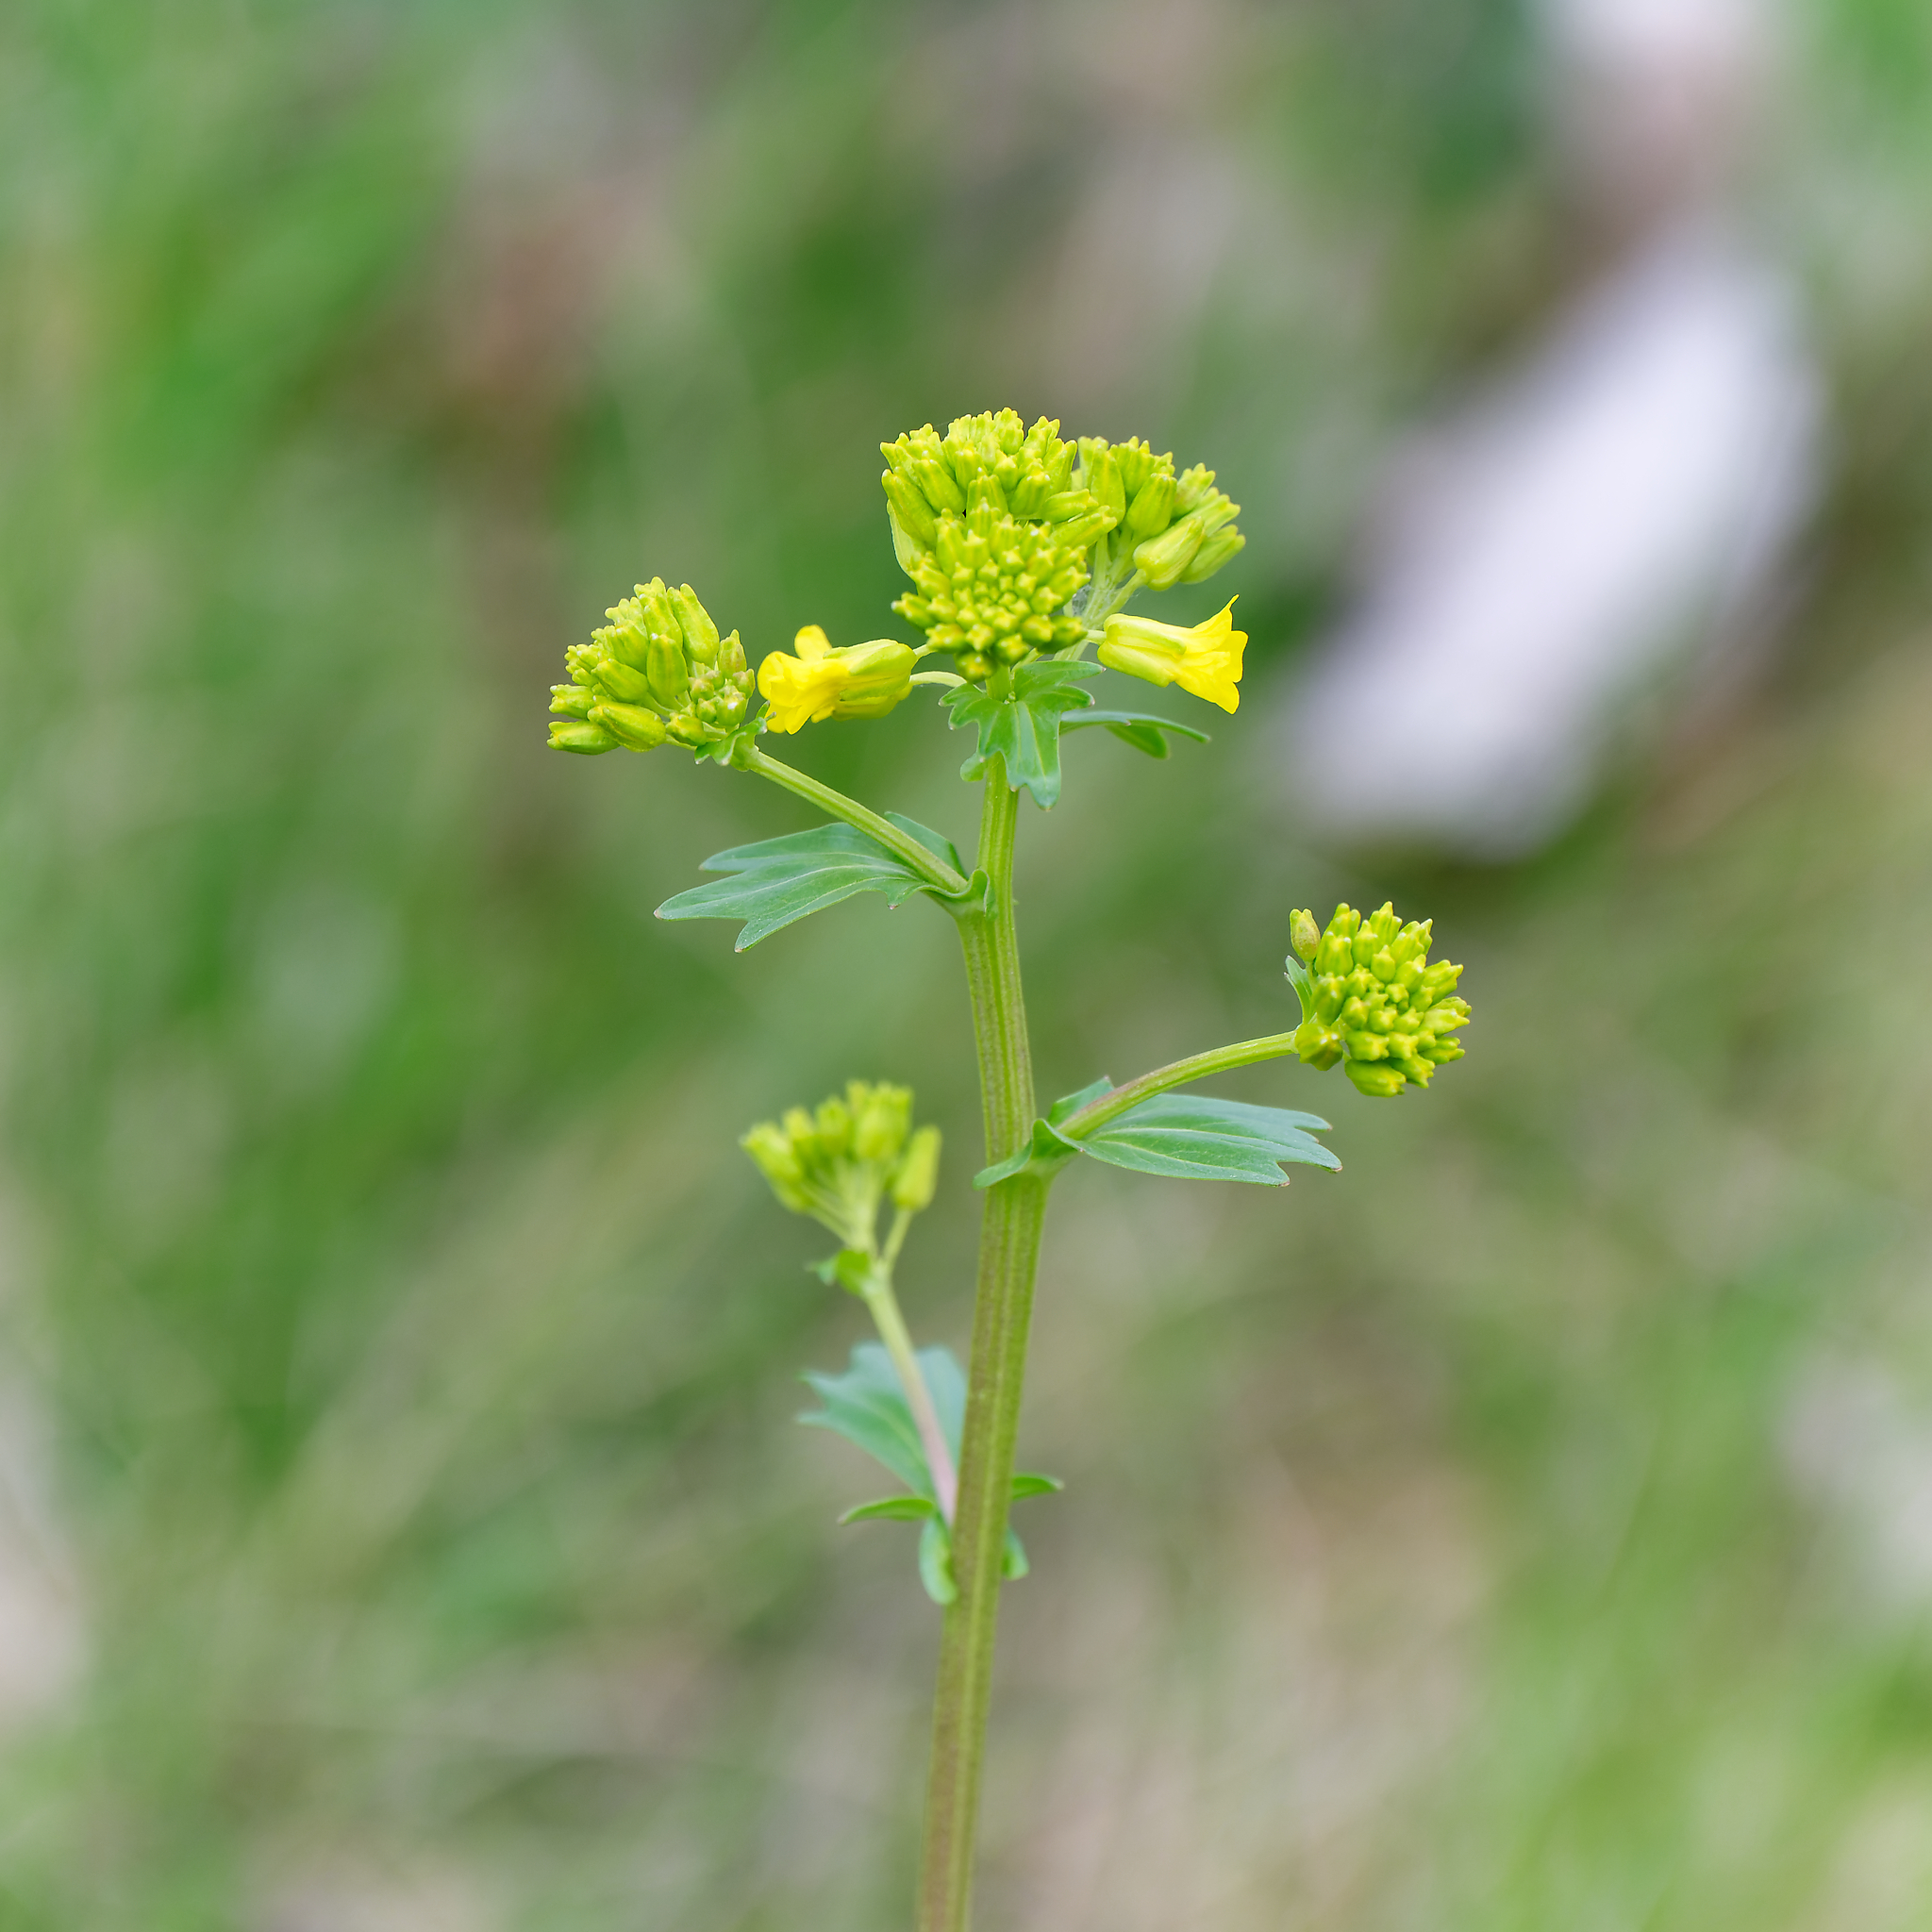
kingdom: Plantae
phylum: Tracheophyta
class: Magnoliopsida
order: Brassicales
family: Brassicaceae
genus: Barbarea
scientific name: Barbarea vulgaris
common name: Cressy-greens
